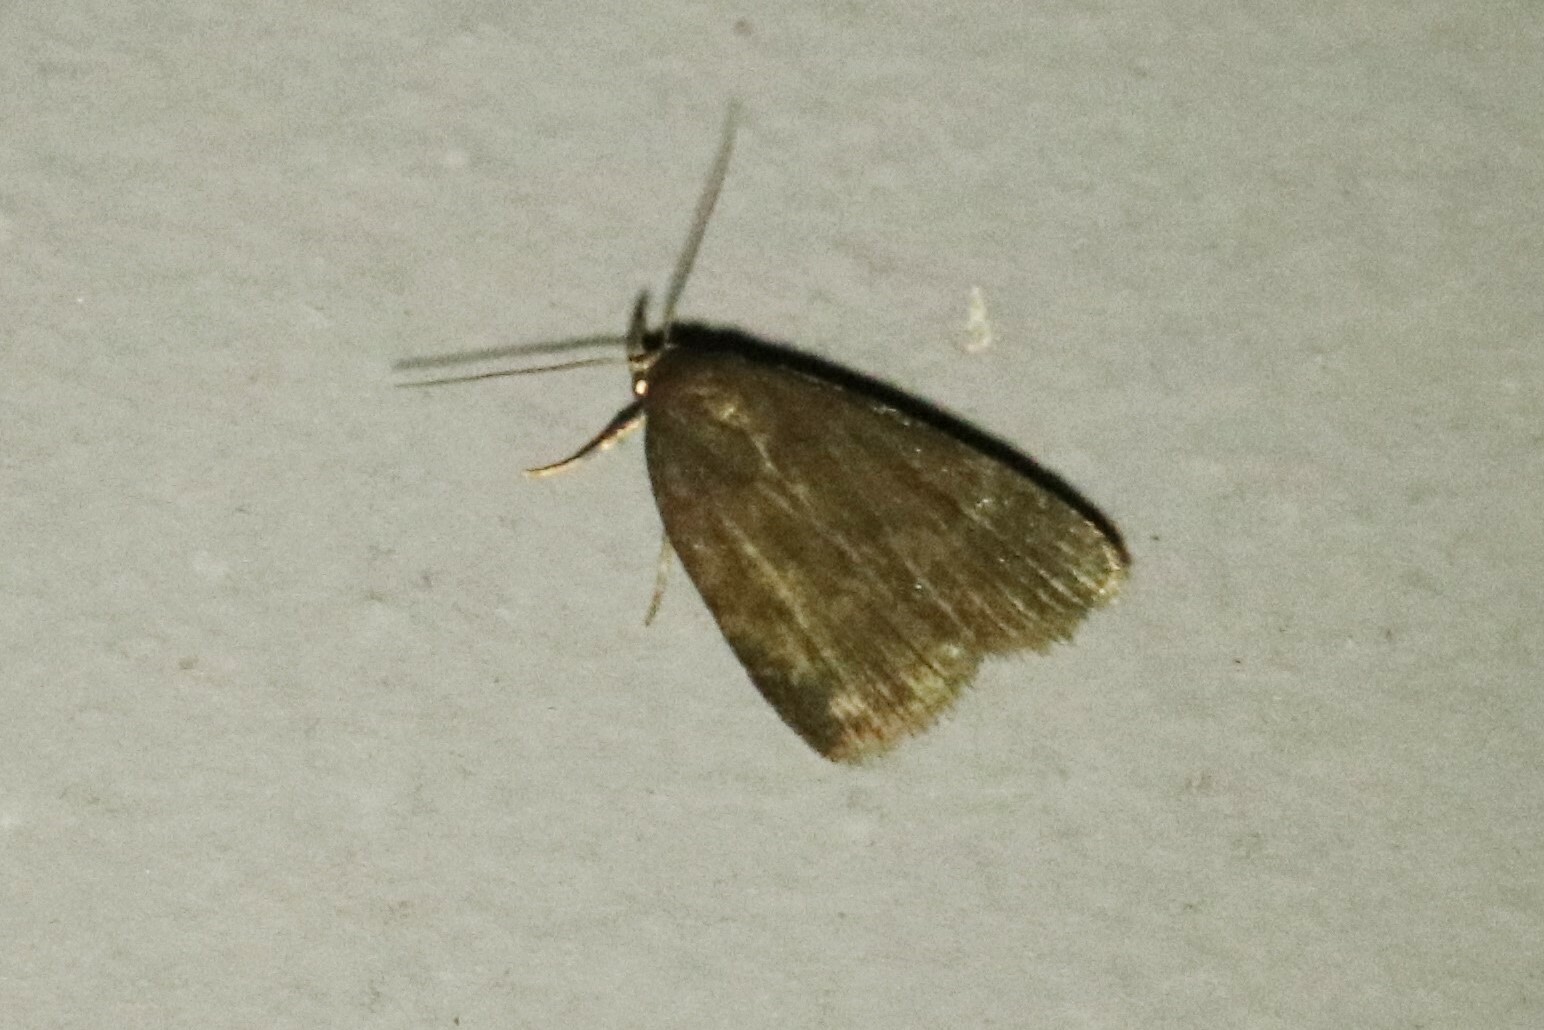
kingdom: Animalia
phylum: Arthropoda
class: Insecta
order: Lepidoptera
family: Erebidae
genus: Idia
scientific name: Idia rotundalis
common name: Rotund idia moth
